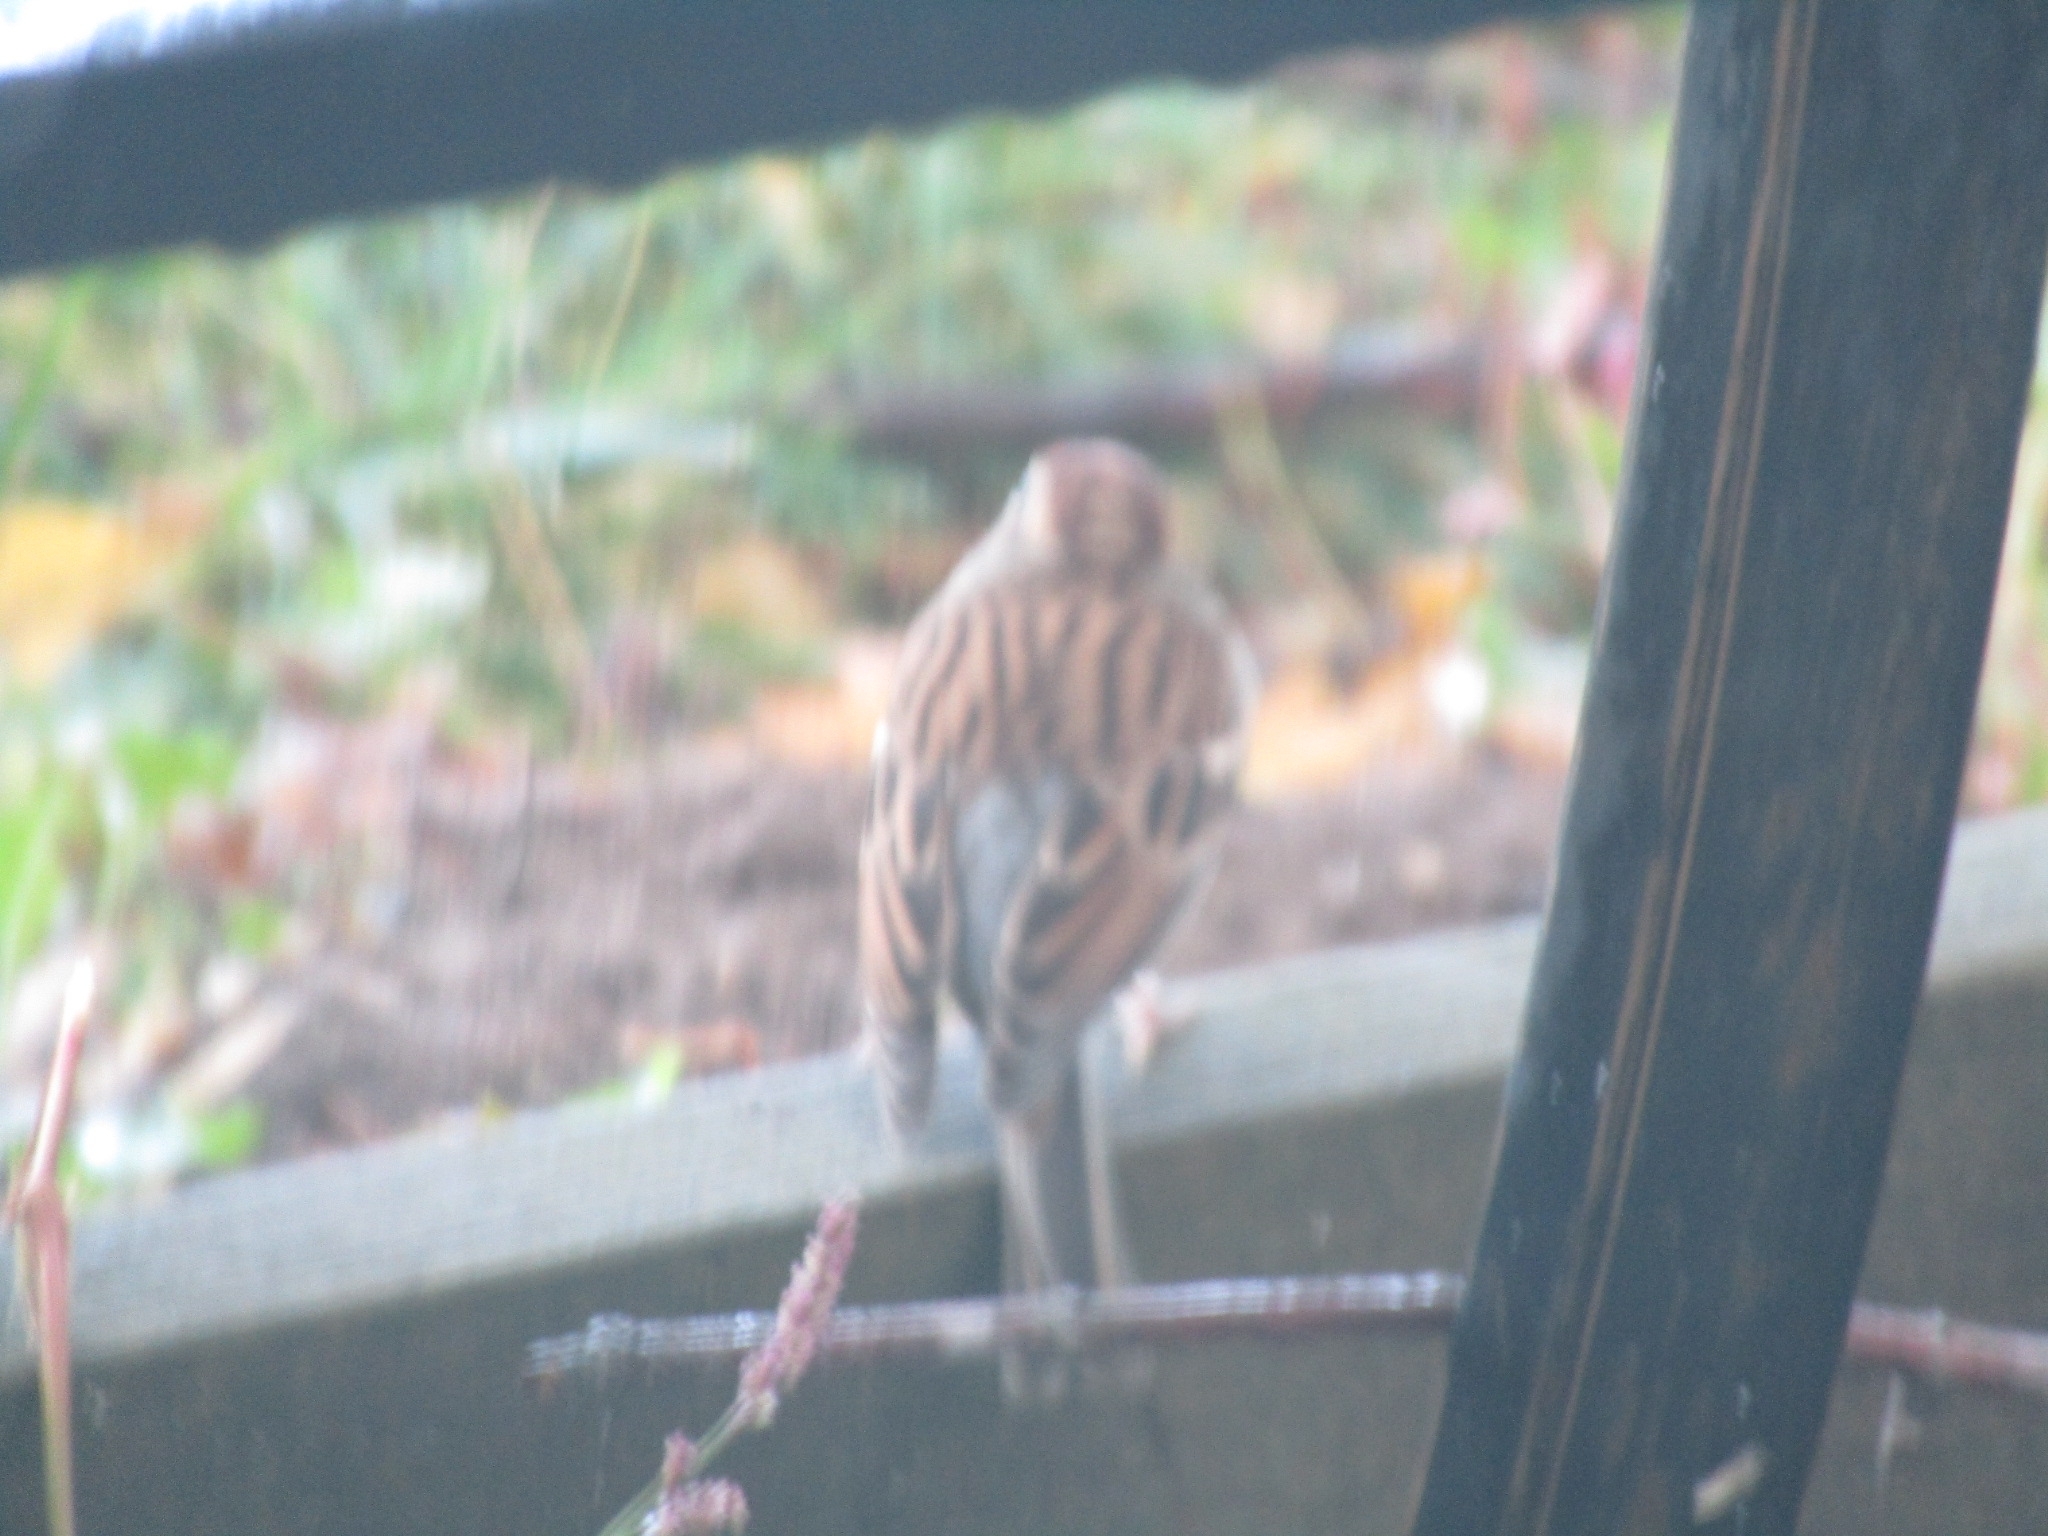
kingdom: Animalia
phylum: Chordata
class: Aves
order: Passeriformes
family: Passerellidae
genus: Spizella
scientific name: Spizella passerina
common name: Chipping sparrow
